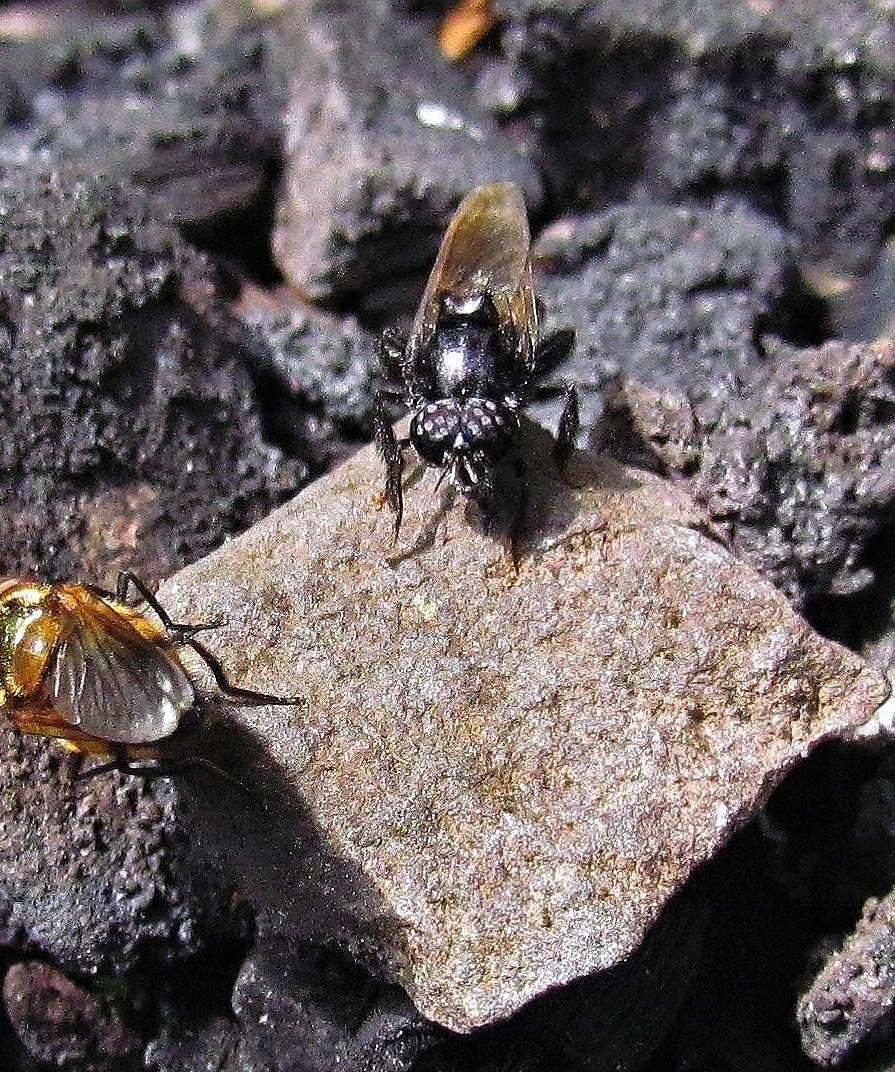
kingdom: Animalia
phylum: Arthropoda
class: Insecta
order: Diptera
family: Syrphidae
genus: Copestylum
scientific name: Copestylum rufitarse
